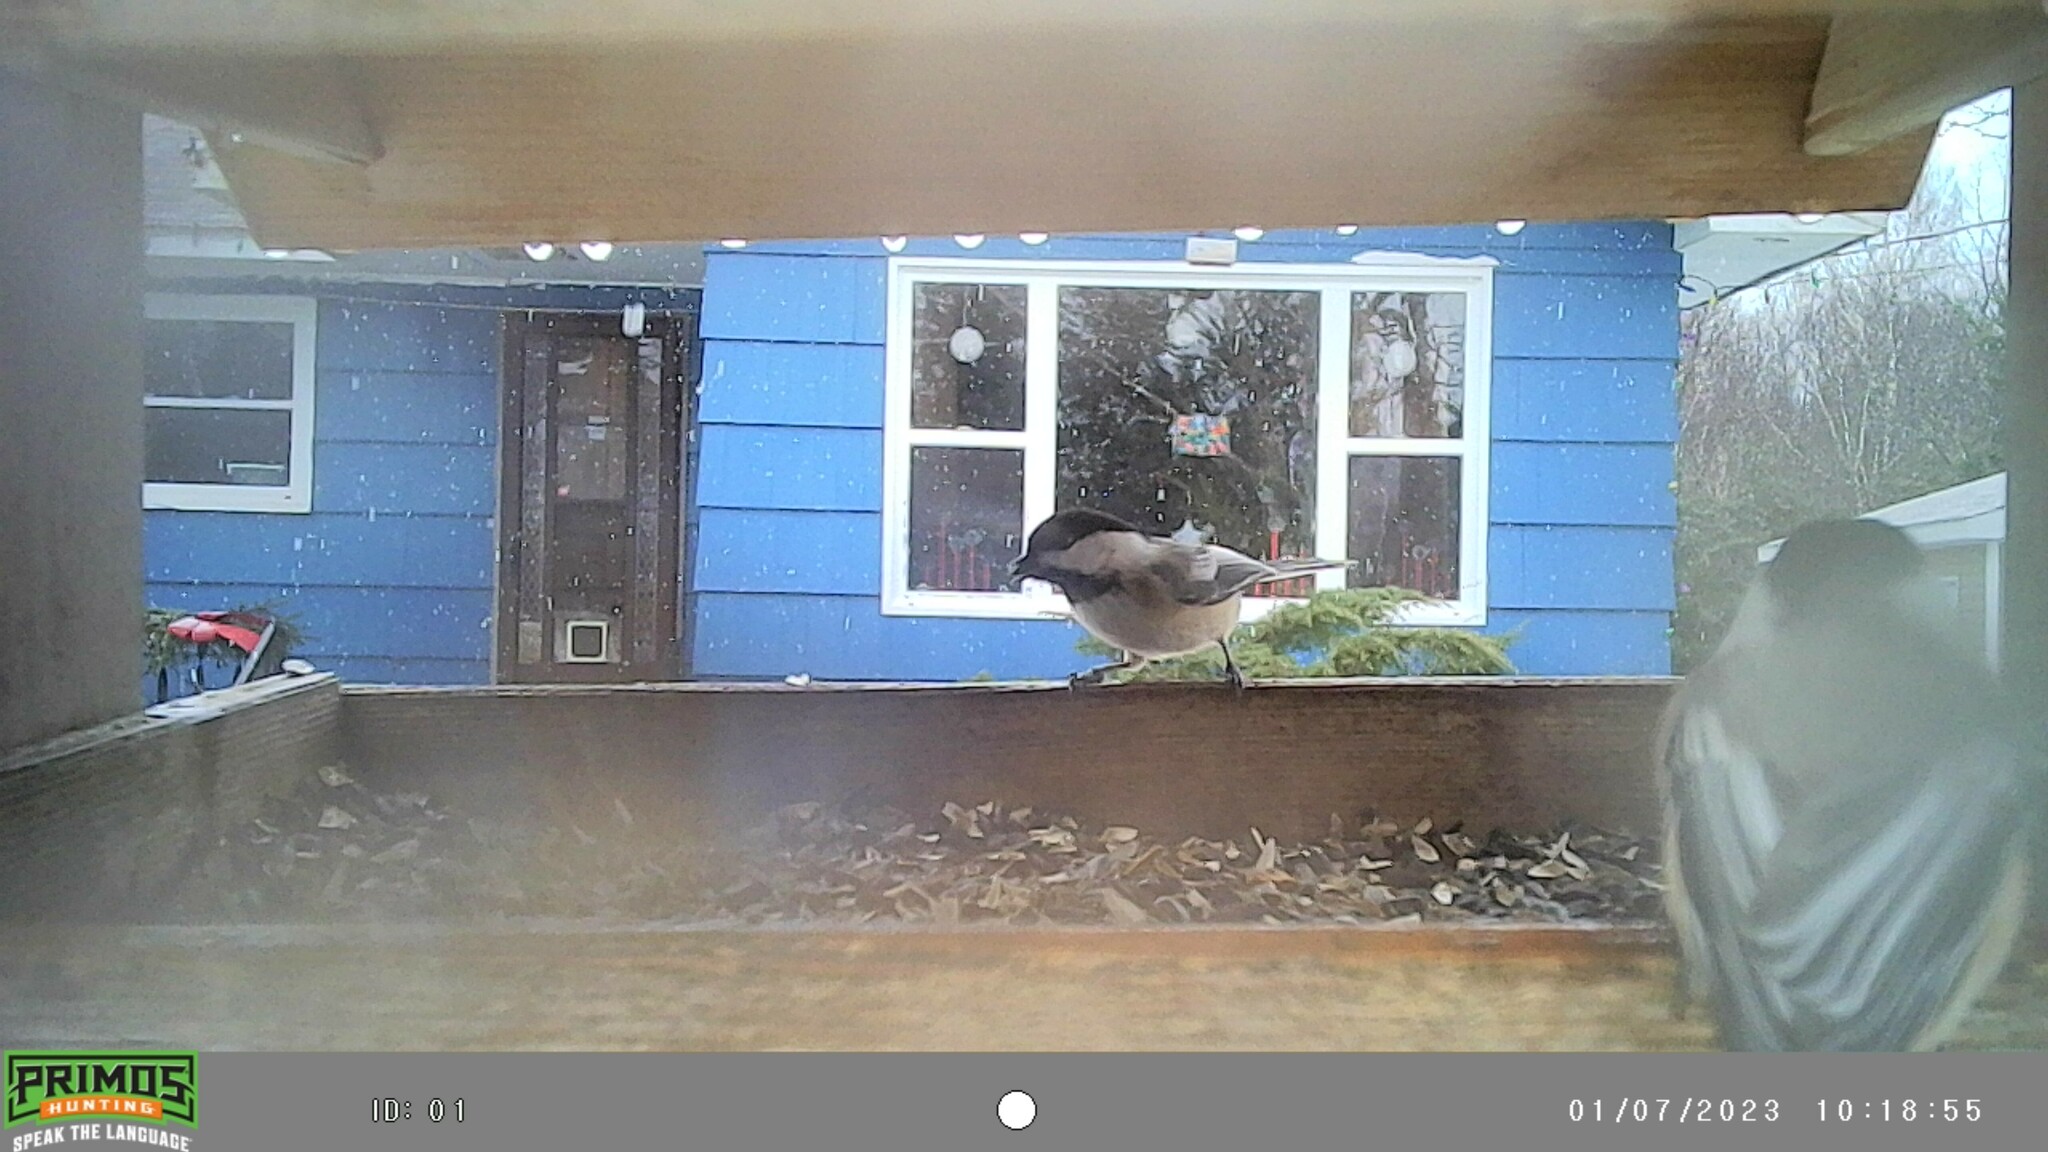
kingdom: Animalia
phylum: Chordata
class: Aves
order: Passeriformes
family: Paridae
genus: Poecile
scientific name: Poecile atricapillus
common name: Black-capped chickadee
